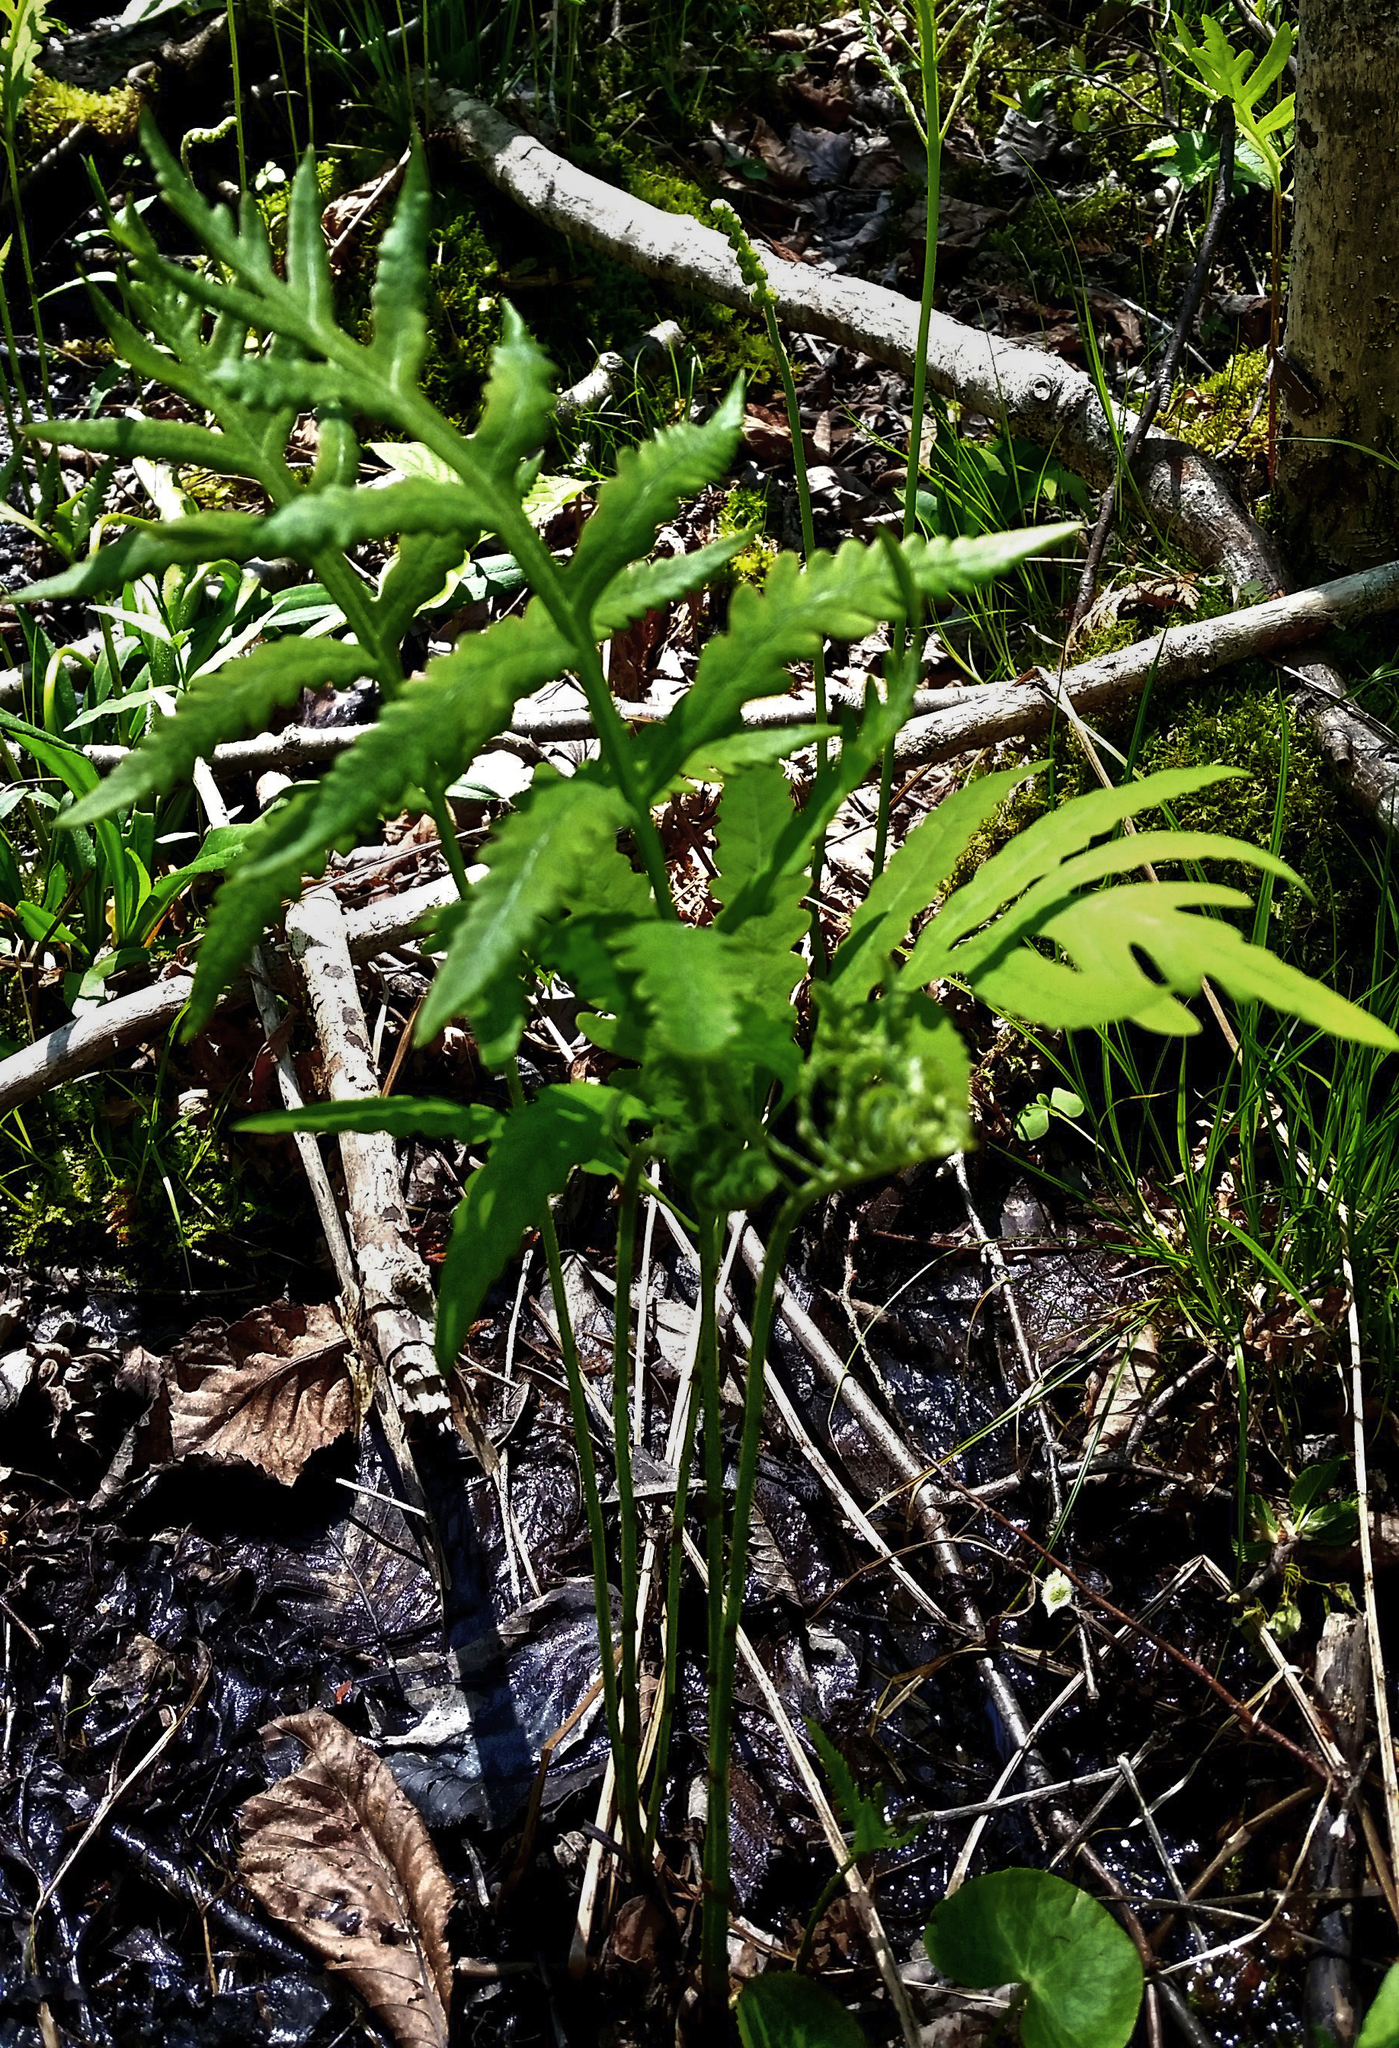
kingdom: Plantae
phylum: Tracheophyta
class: Polypodiopsida
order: Polypodiales
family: Onocleaceae
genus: Onoclea
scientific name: Onoclea sensibilis
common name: Sensitive fern
